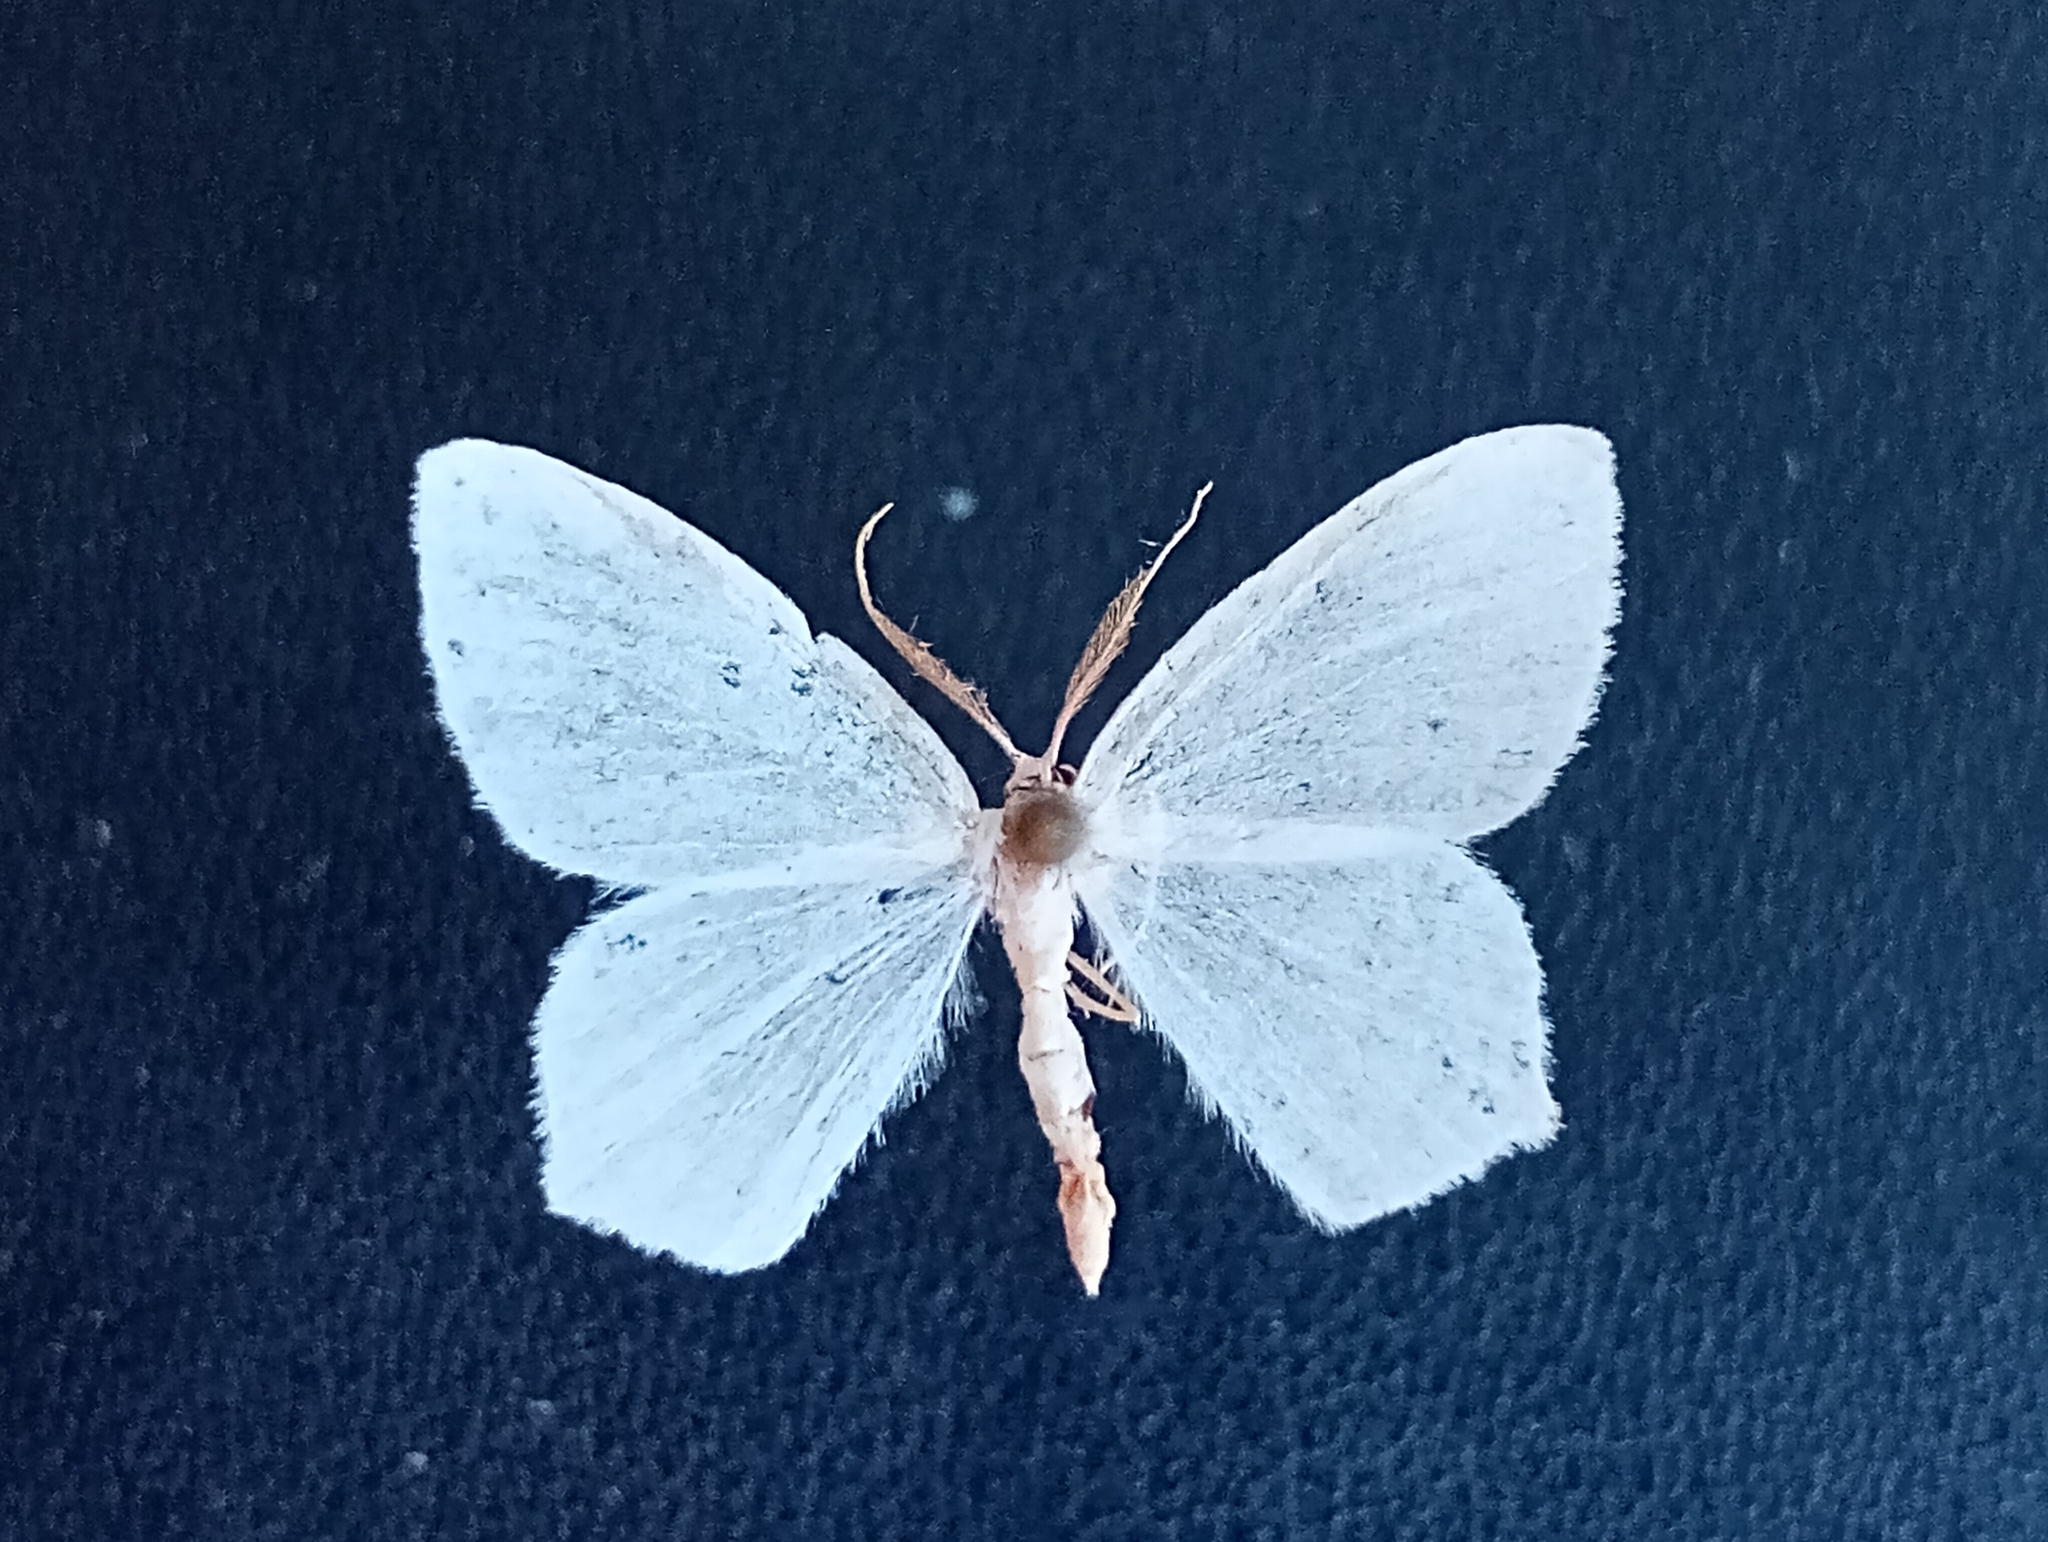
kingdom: Animalia
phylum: Arthropoda
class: Insecta
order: Lepidoptera
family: Geometridae
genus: Jodis
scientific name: Jodis lactearia
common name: Little emerald
